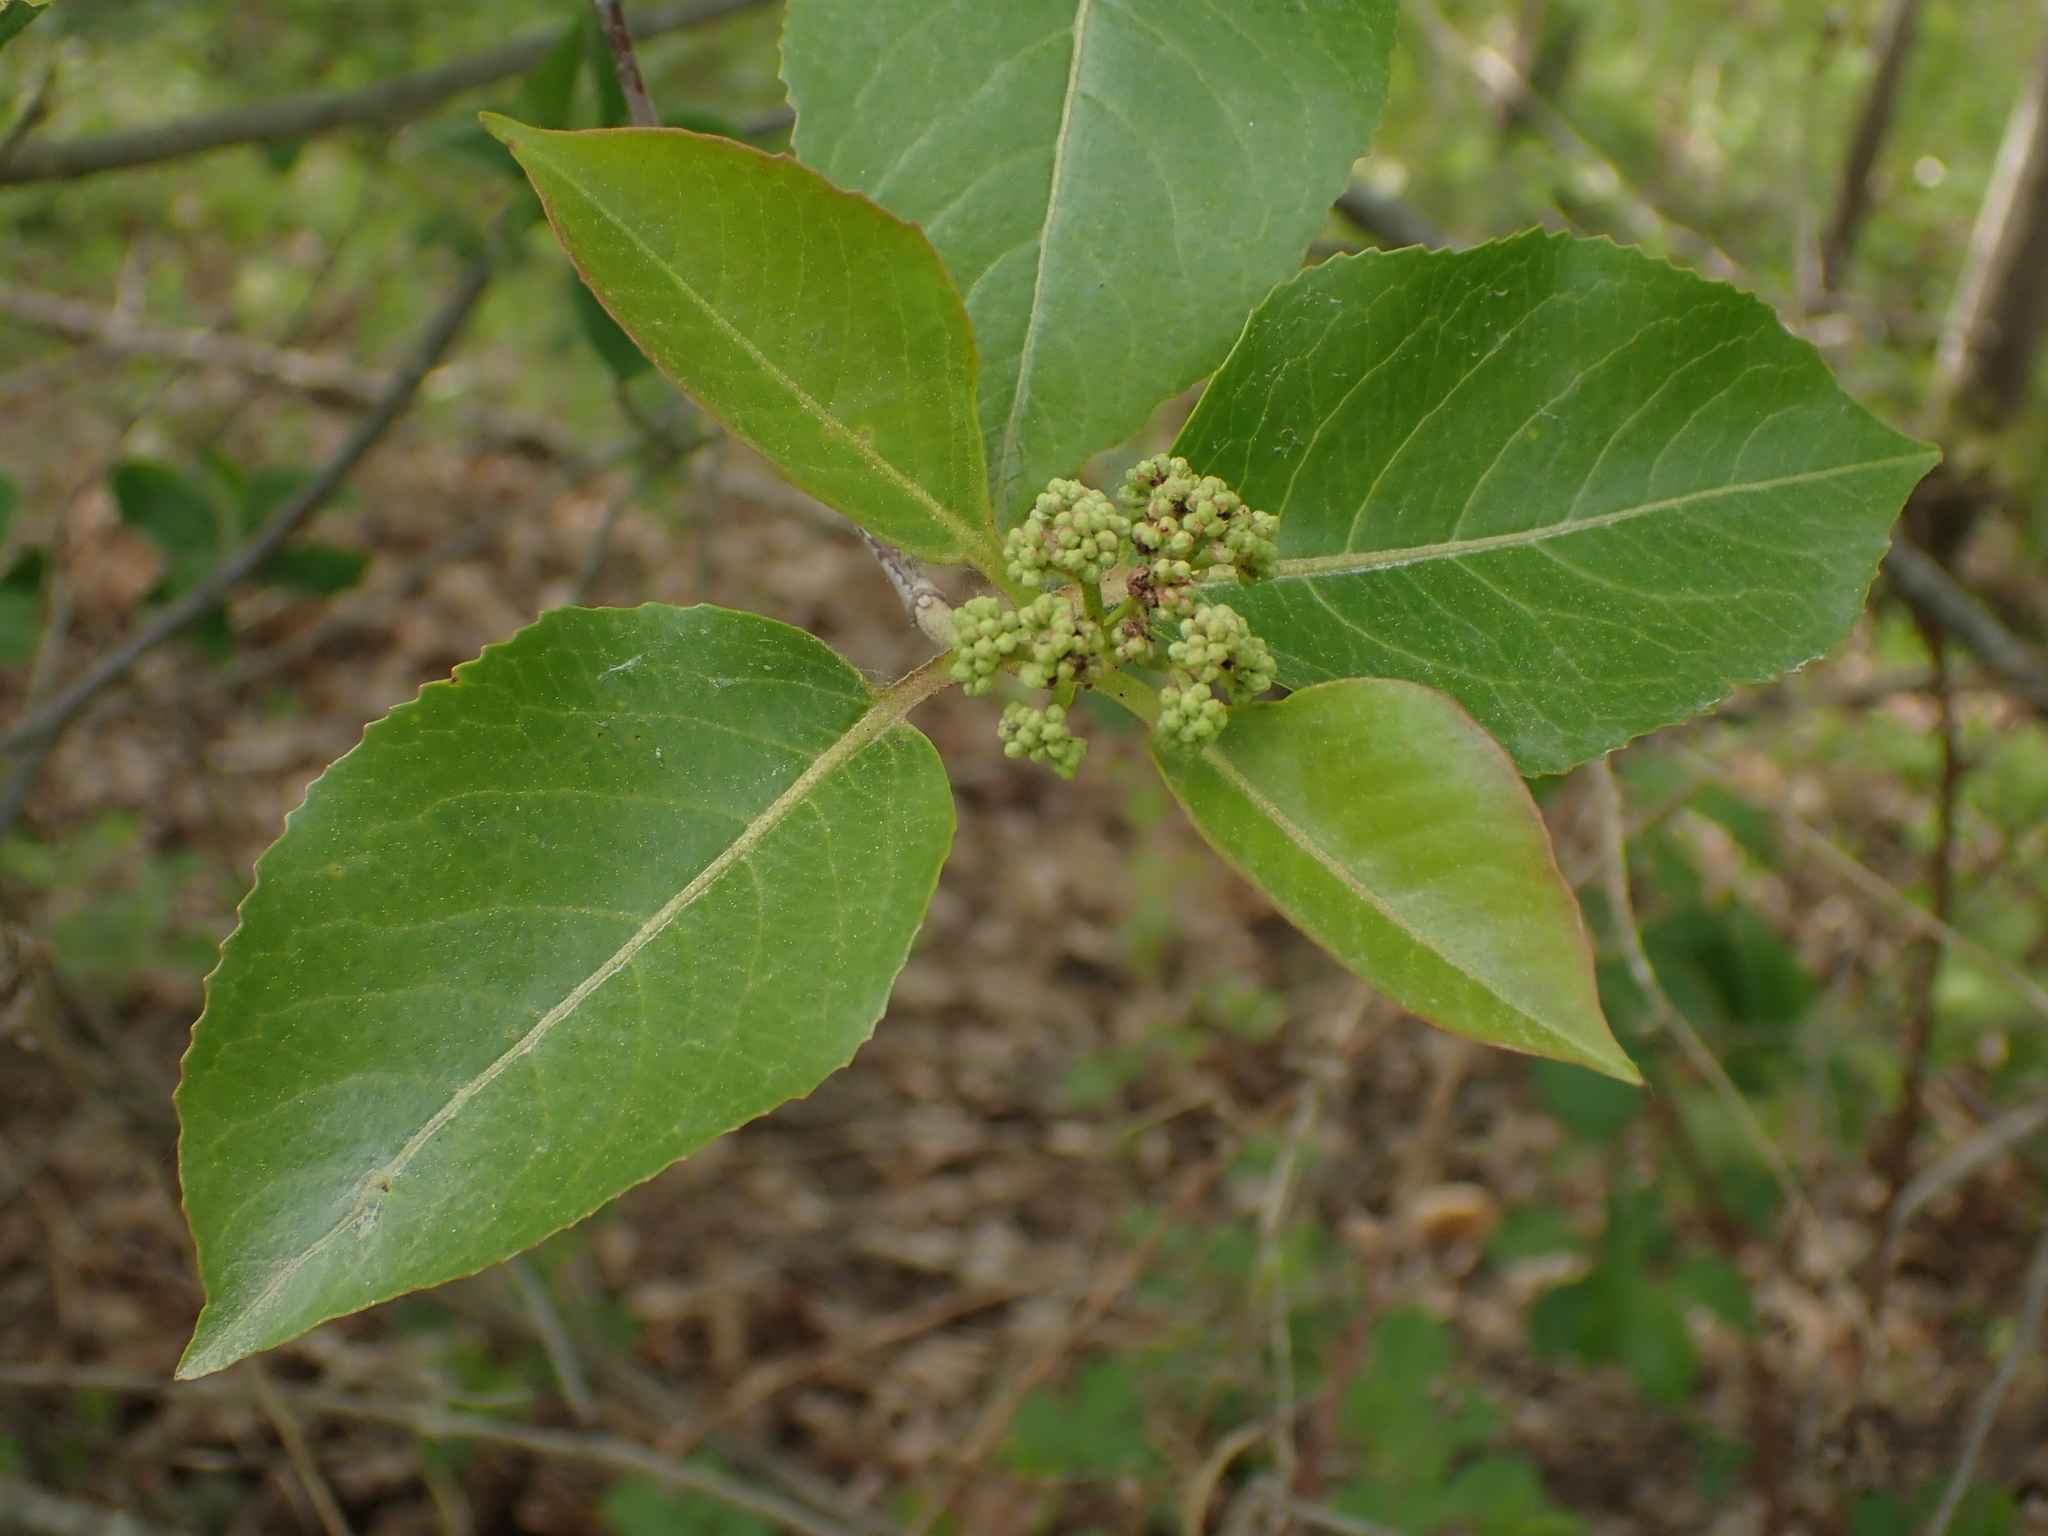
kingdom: Plantae
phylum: Tracheophyta
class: Magnoliopsida
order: Dipsacales
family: Viburnaceae
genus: Viburnum
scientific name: Viburnum cassinoides
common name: Swamp haw
